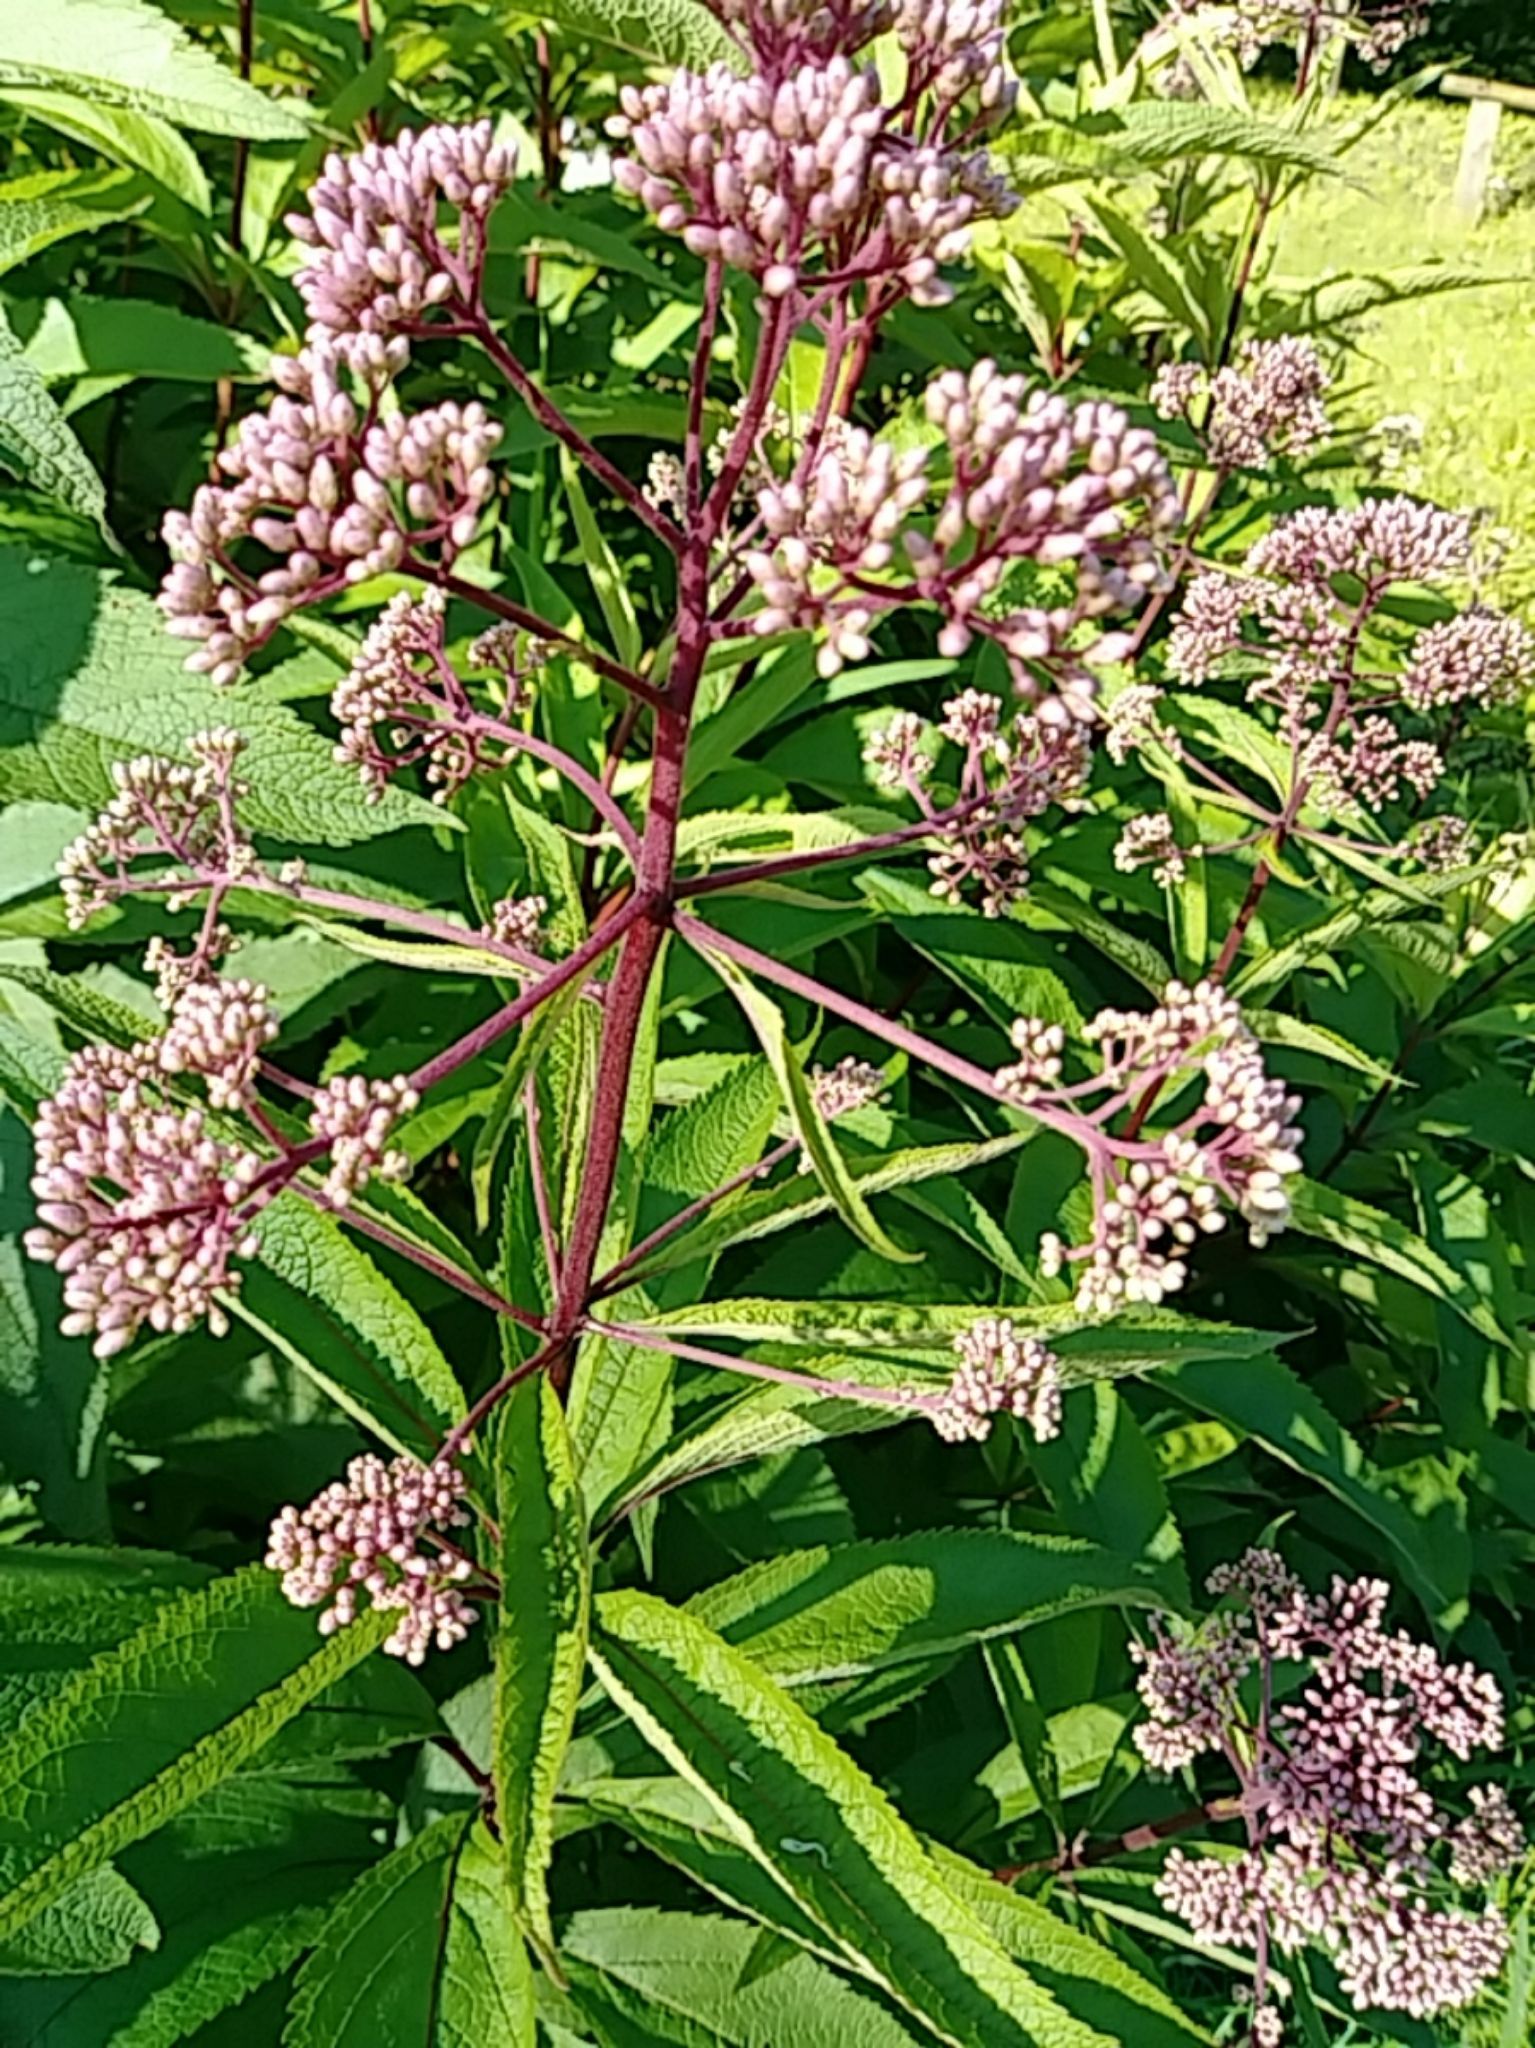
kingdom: Plantae
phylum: Tracheophyta
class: Magnoliopsida
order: Asterales
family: Asteraceae
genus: Eutrochium
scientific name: Eutrochium maculatum
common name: Spotted joe pye weed
